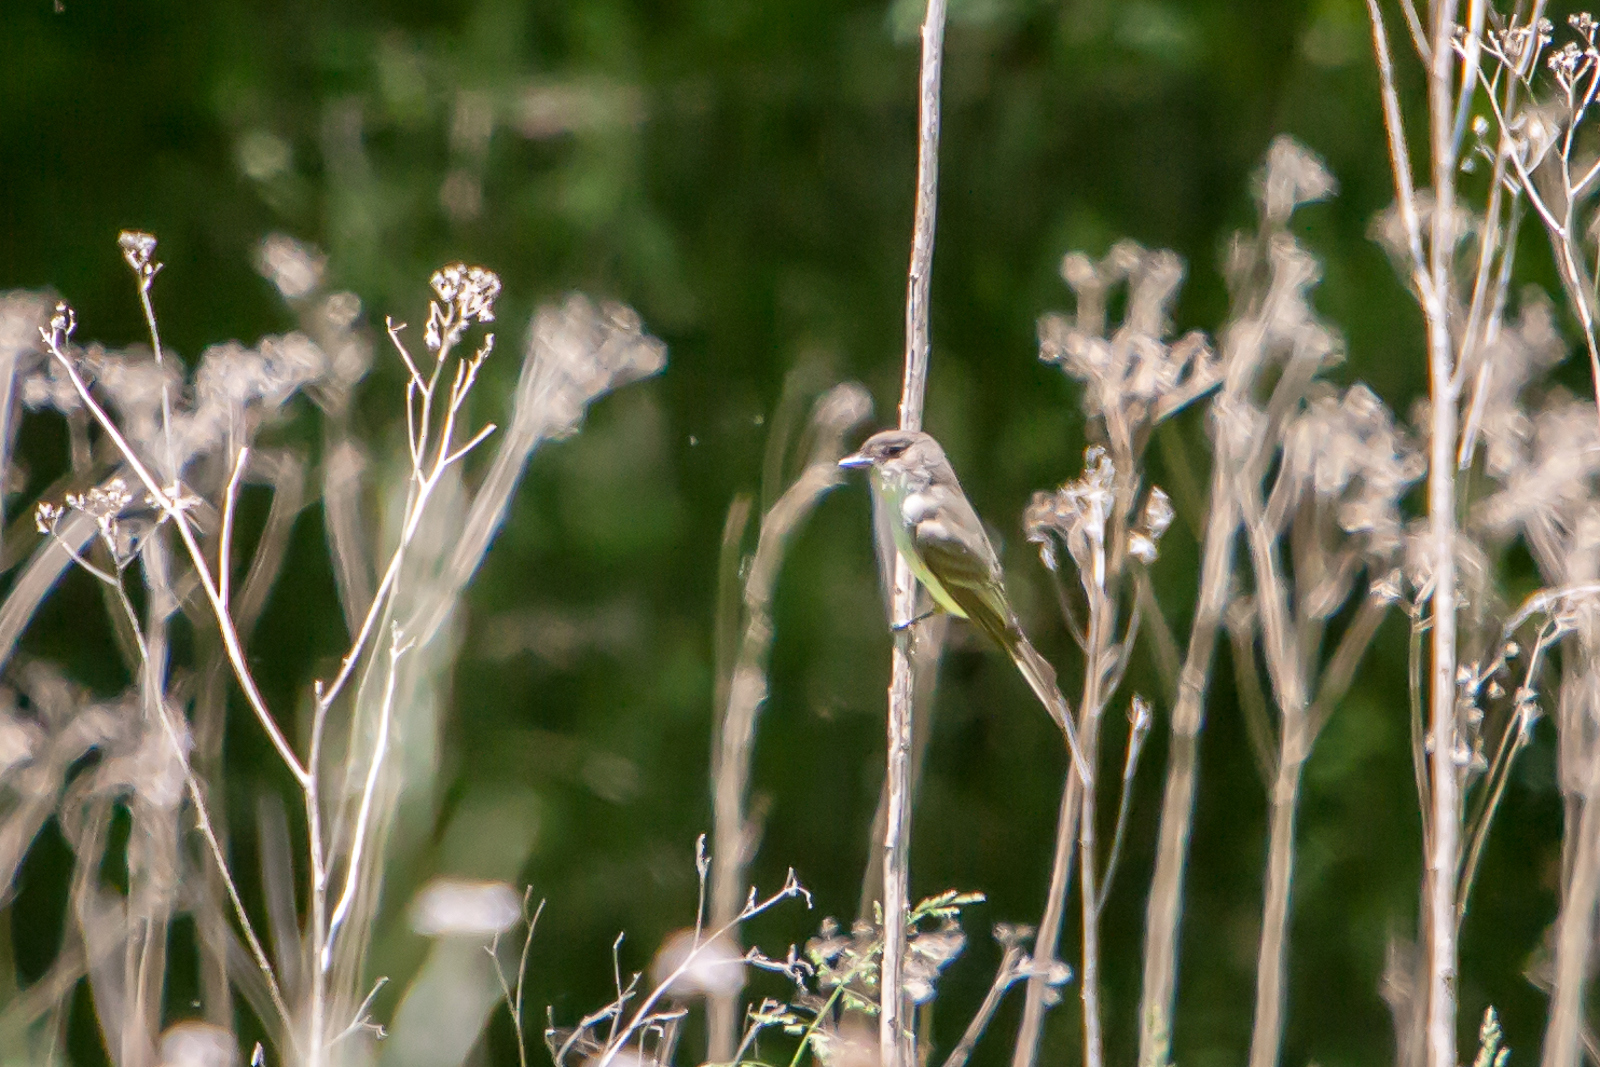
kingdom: Animalia
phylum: Chordata
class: Aves
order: Passeriformes
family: Tyrannidae
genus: Empidonax
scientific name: Empidonax virescens
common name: Acadian flycatcher
